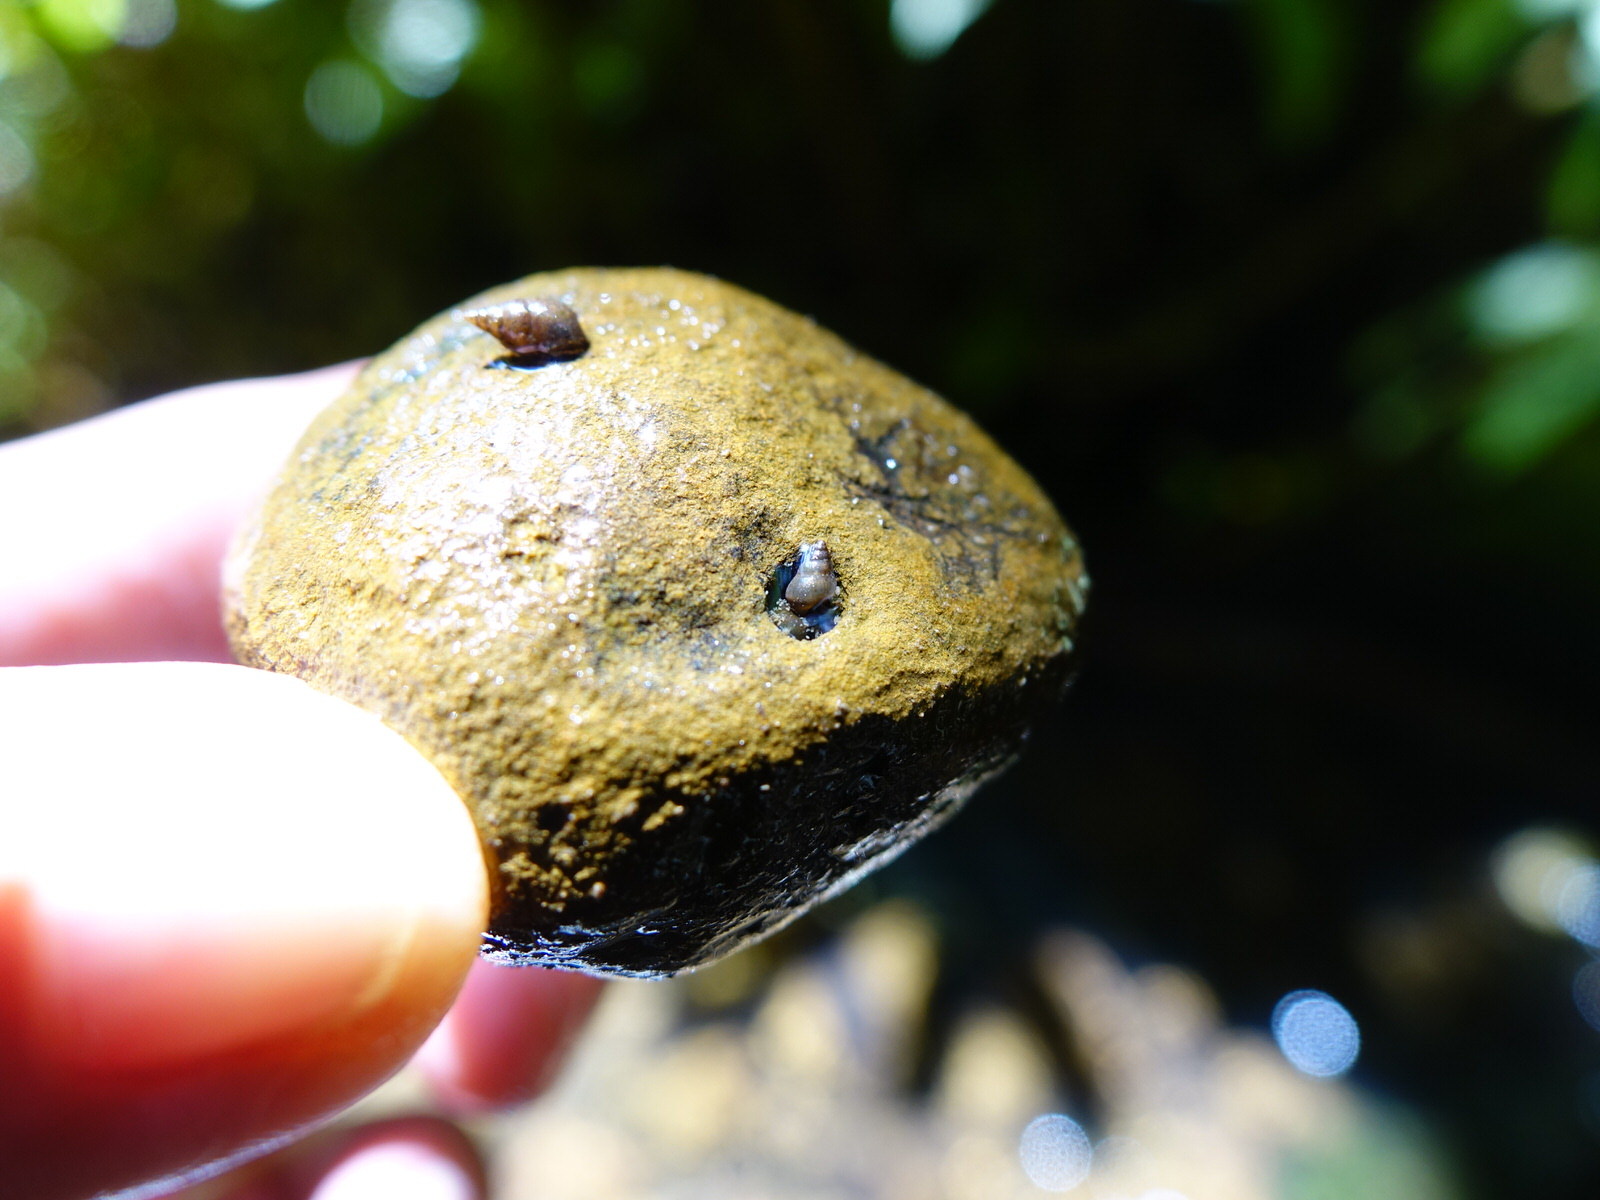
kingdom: Animalia
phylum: Mollusca
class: Gastropoda
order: Littorinimorpha
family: Tateidae
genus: Potamopyrgus
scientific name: Potamopyrgus antipodarum
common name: Jenkins' spire snail
